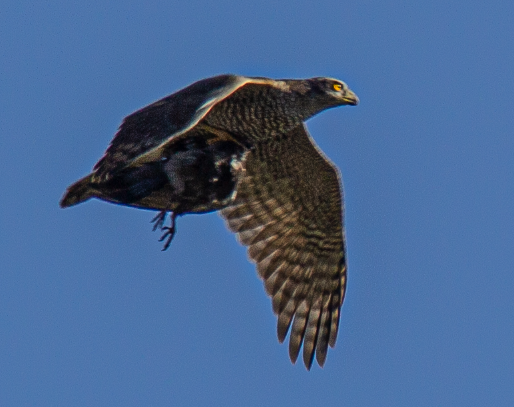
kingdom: Animalia
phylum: Chordata
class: Aves
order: Accipitriformes
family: Accipitridae
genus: Accipiter
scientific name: Accipiter gentilis
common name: Northern goshawk
